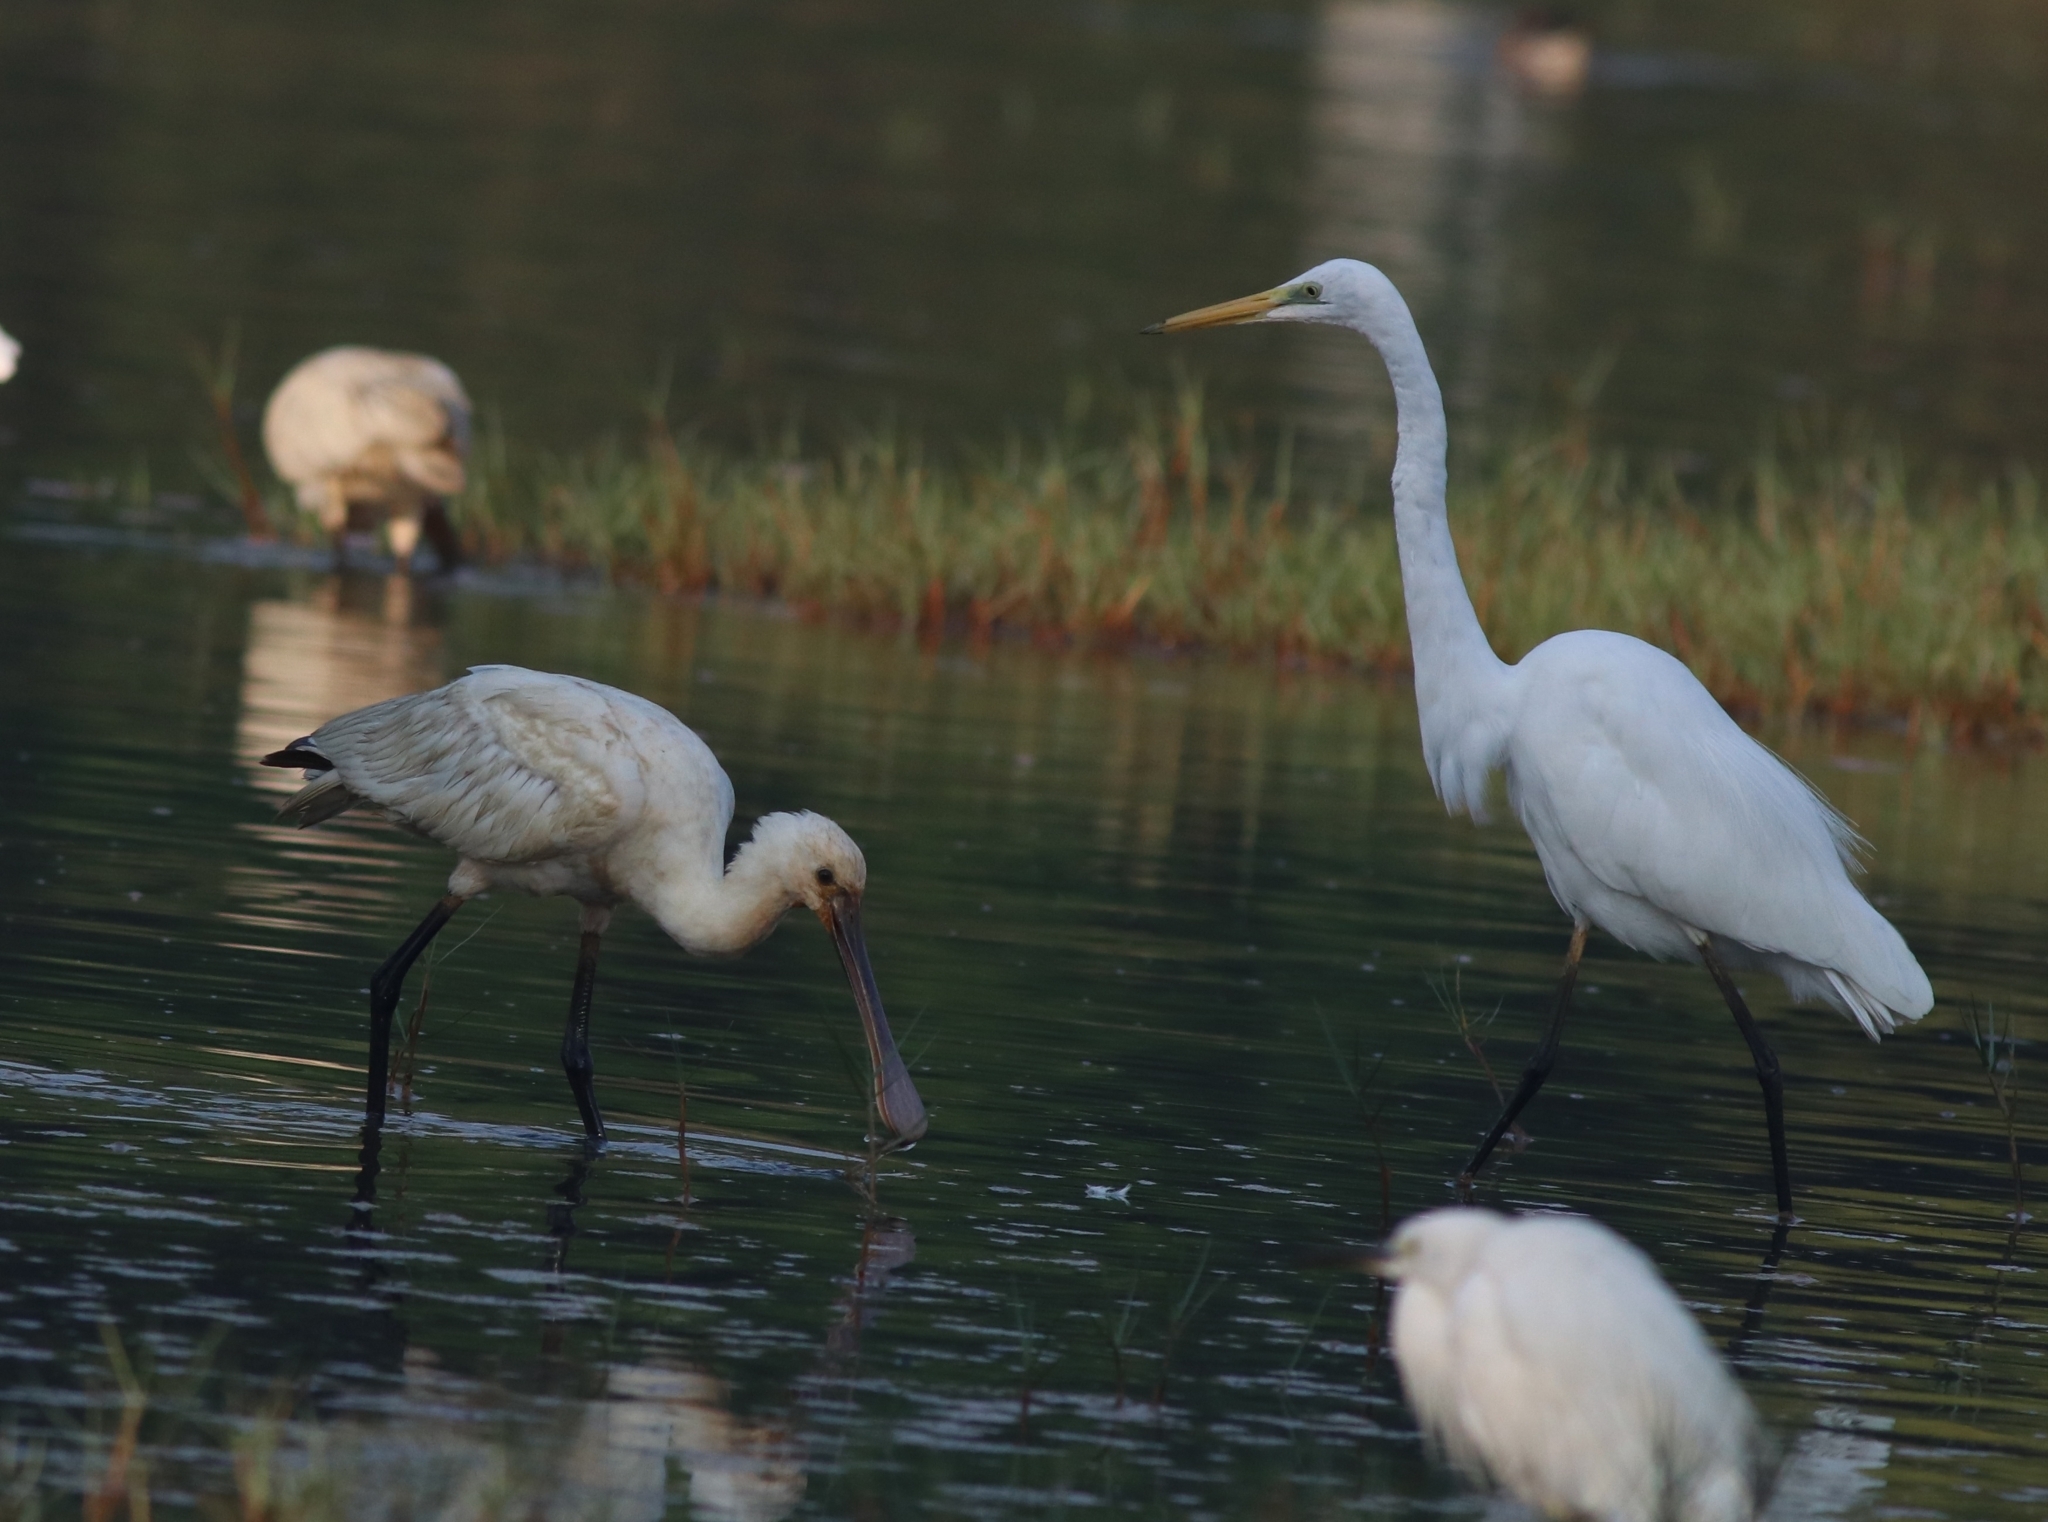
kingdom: Animalia
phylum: Chordata
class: Aves
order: Pelecaniformes
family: Ardeidae
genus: Ardea
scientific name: Ardea alba
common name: Great egret
